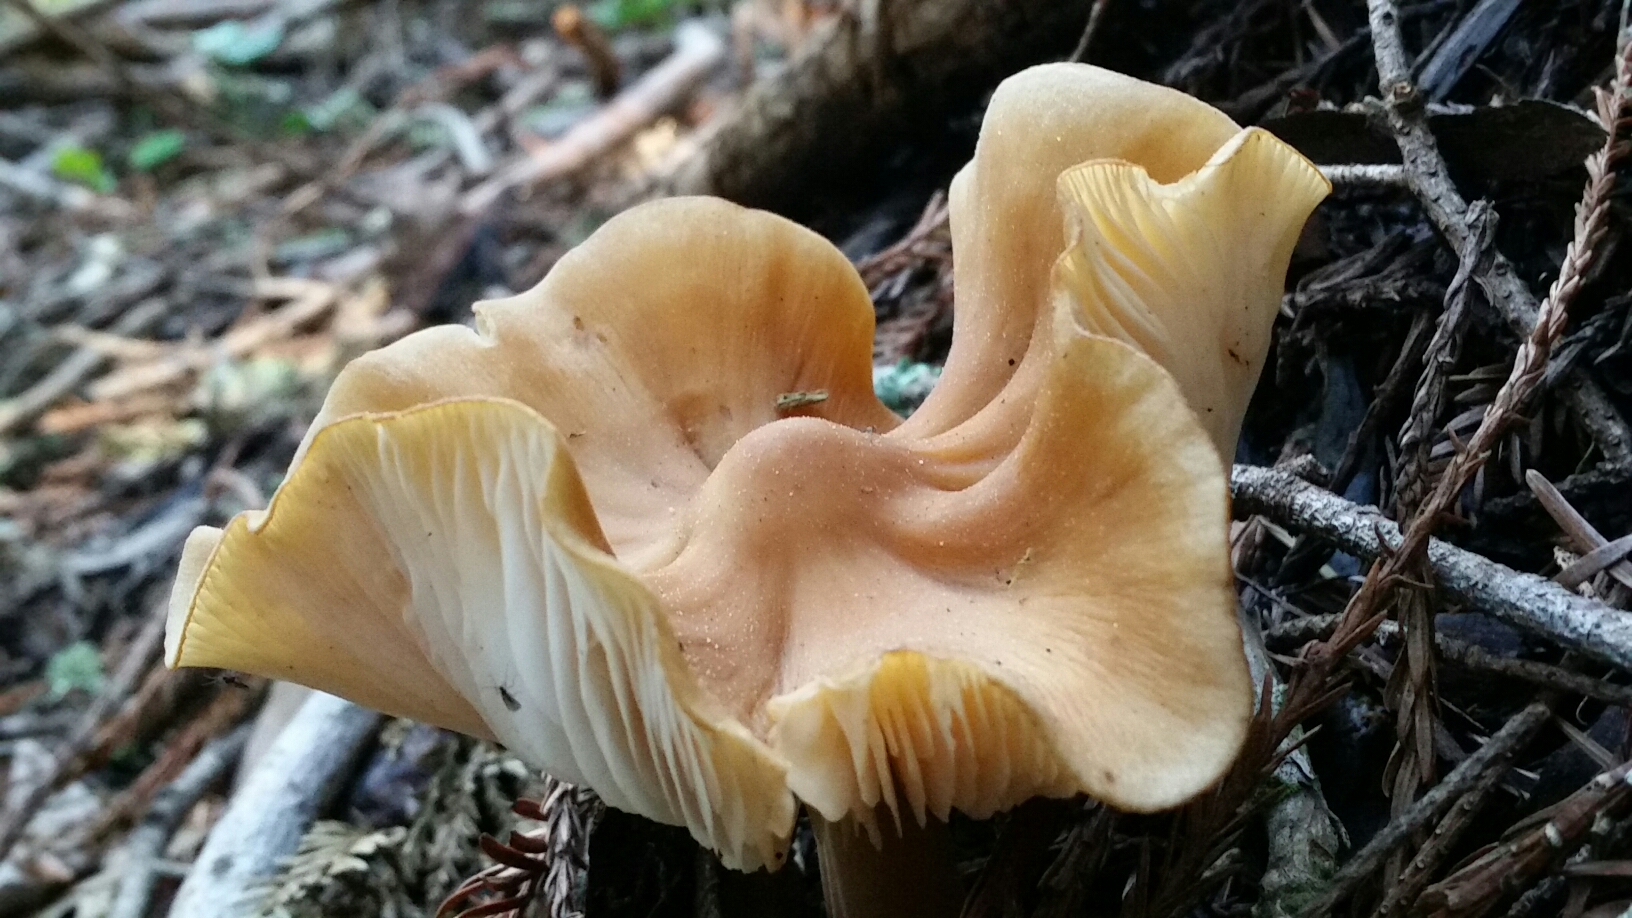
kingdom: Fungi
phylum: Basidiomycota
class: Agaricomycetes
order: Agaricales
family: Tricholomataceae
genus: Caulorhiza
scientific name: Caulorhiza umbonata
